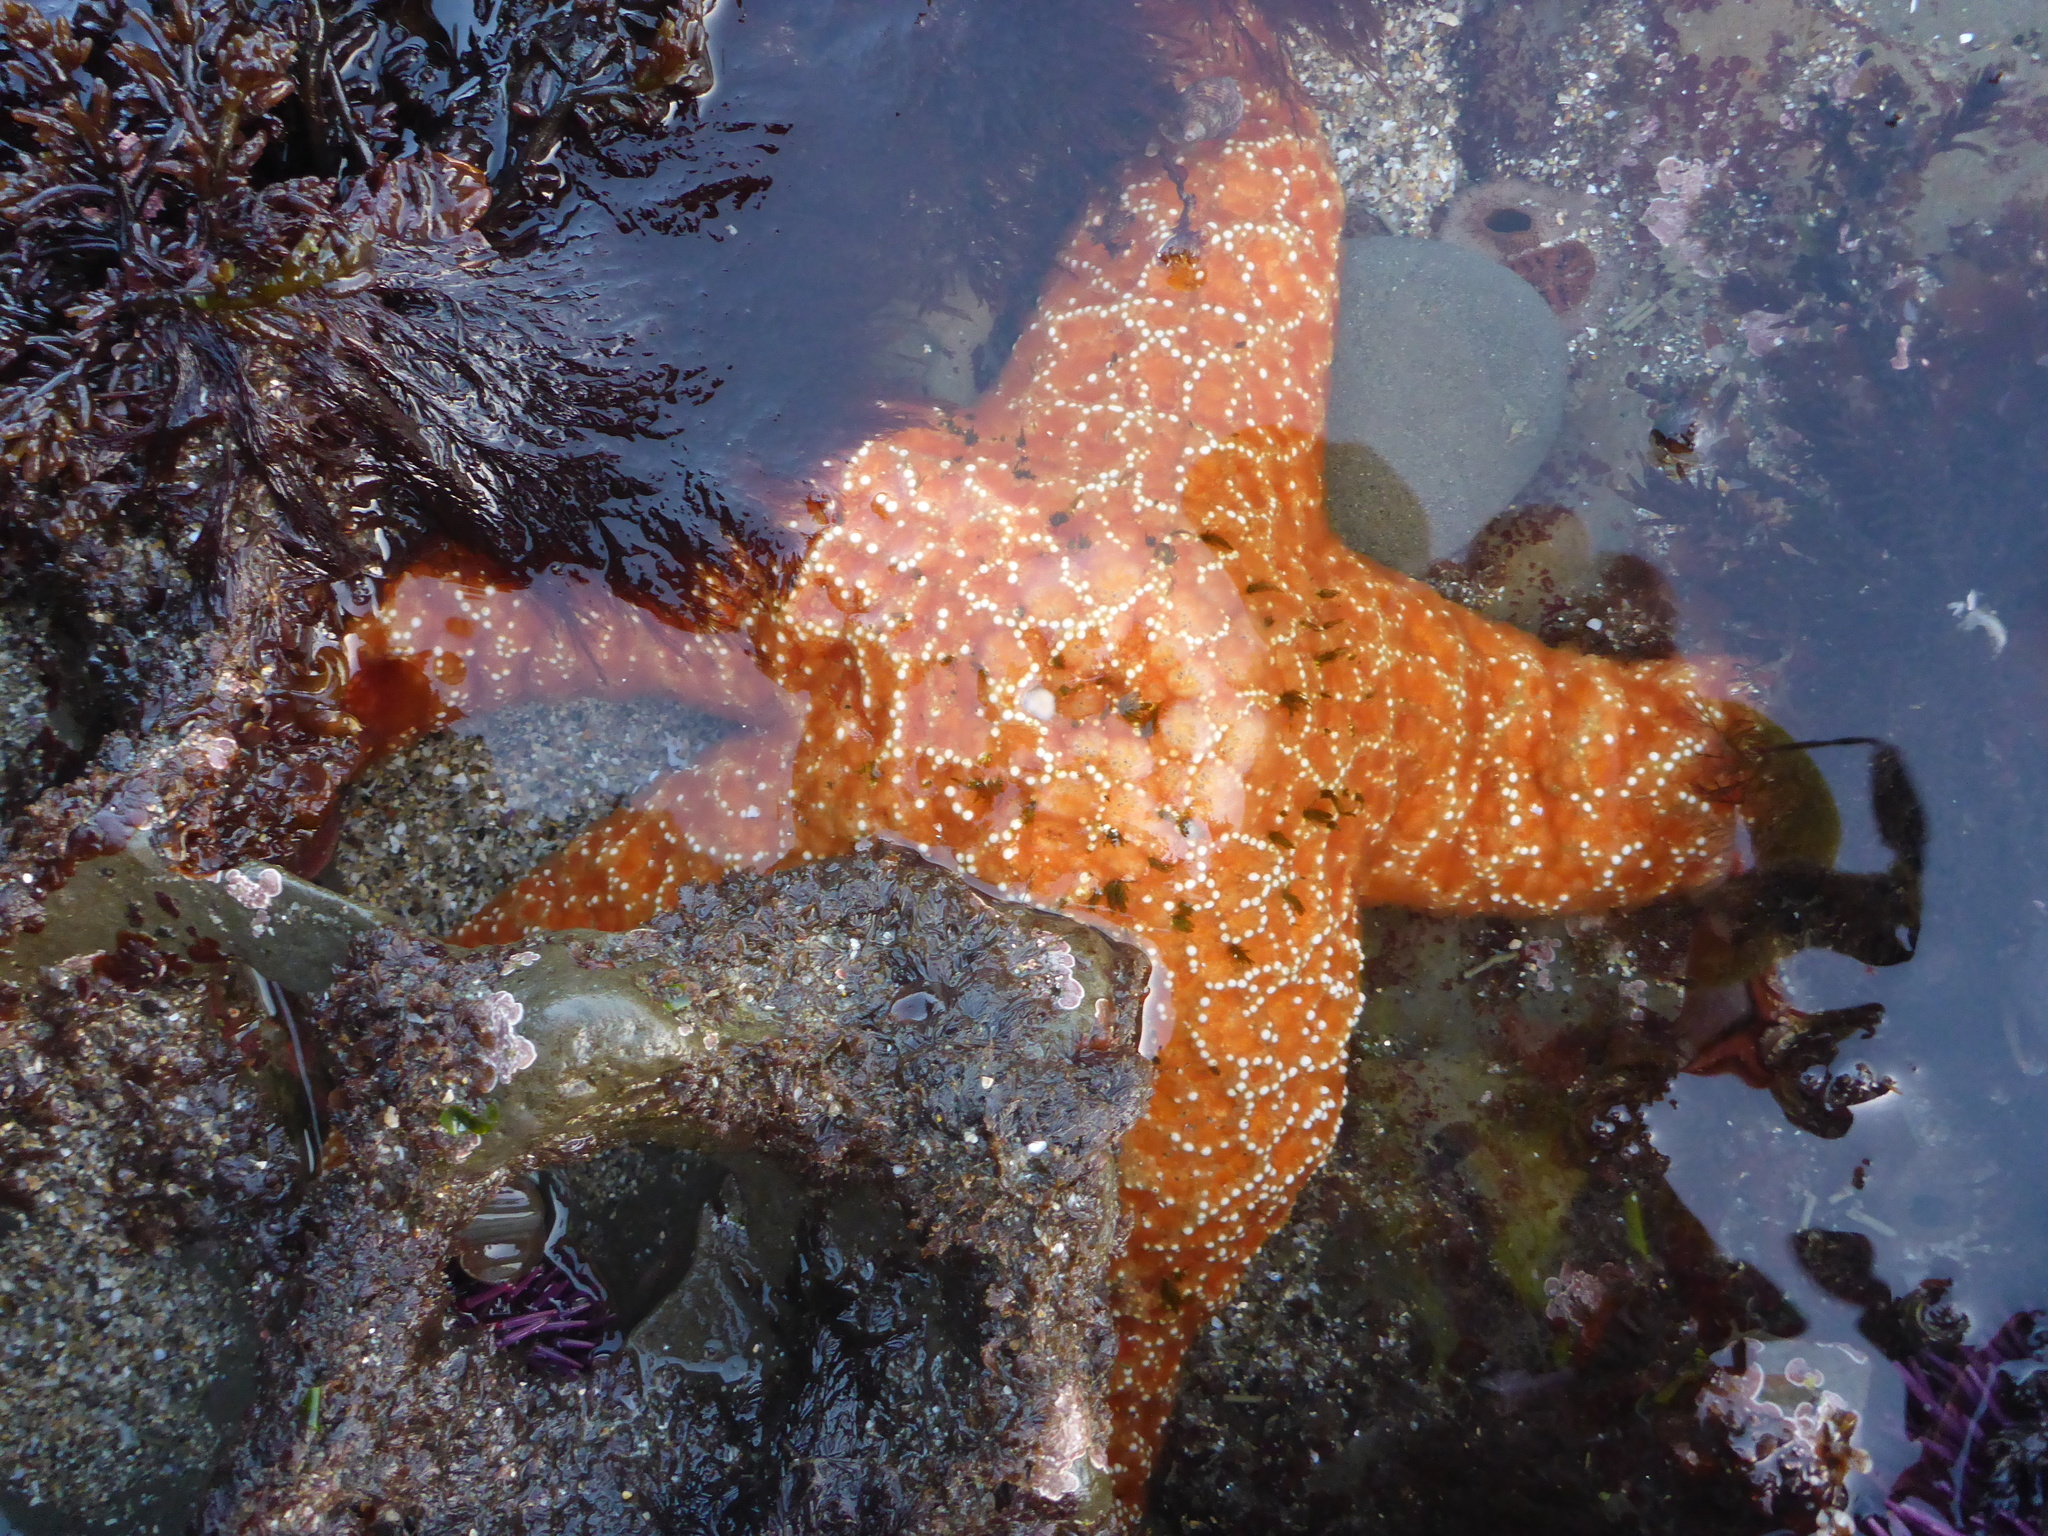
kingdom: Animalia
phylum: Echinodermata
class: Asteroidea
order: Forcipulatida
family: Asteriidae
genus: Pisaster
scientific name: Pisaster ochraceus
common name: Ochre stars
